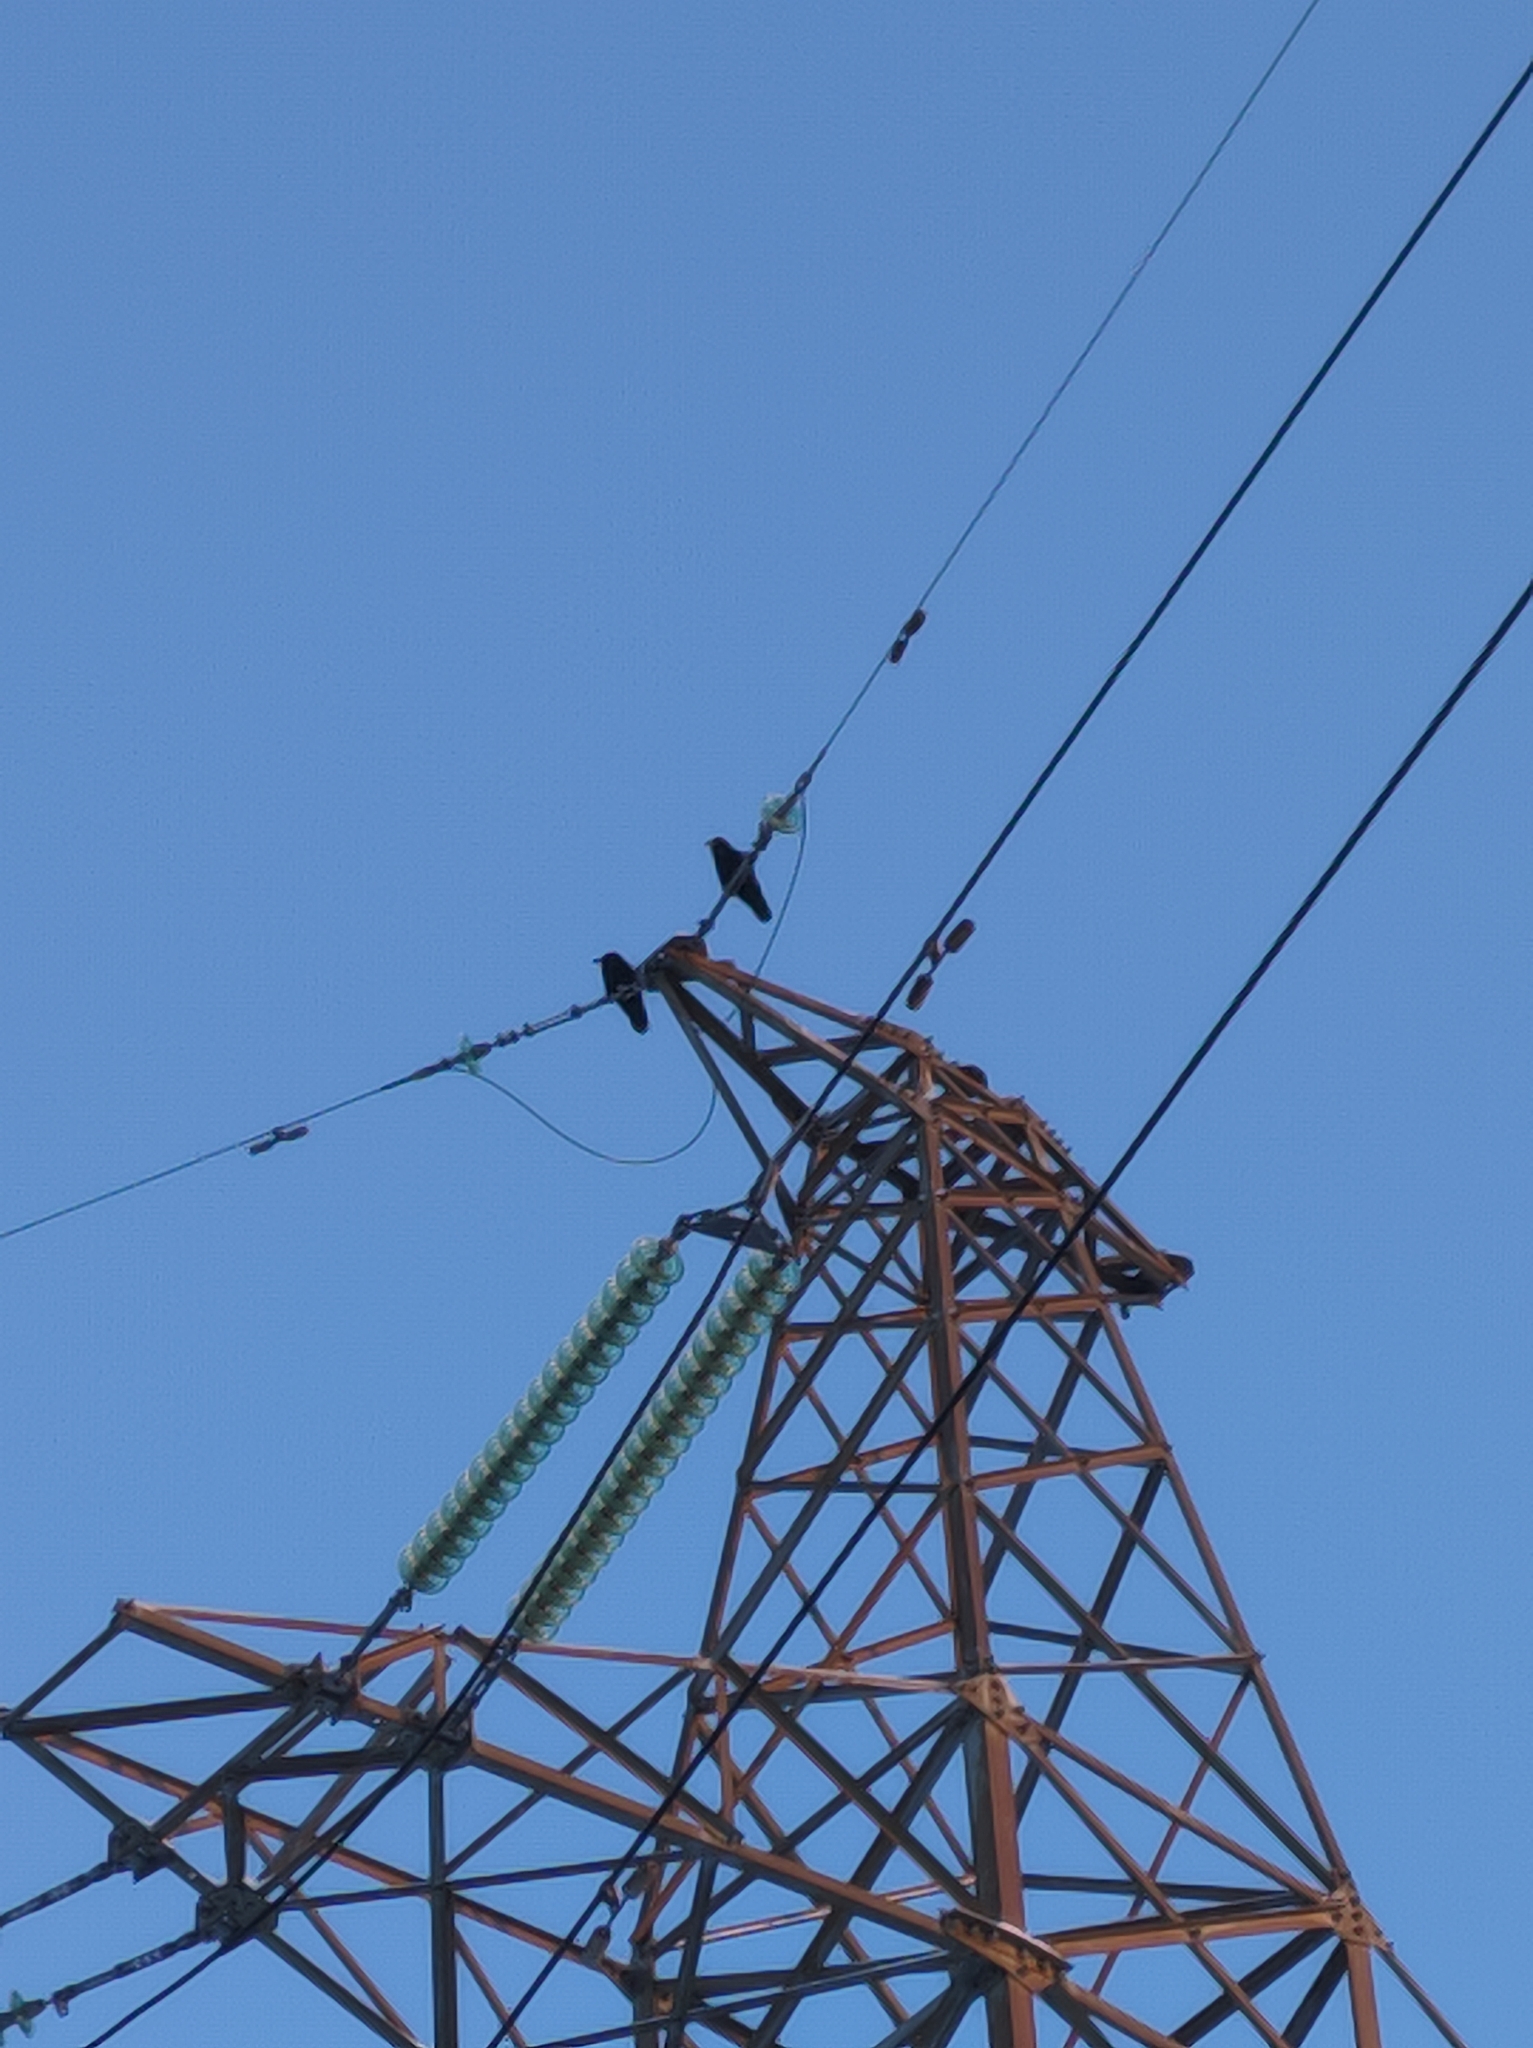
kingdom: Animalia
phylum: Chordata
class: Aves
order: Passeriformes
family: Corvidae
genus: Corvus
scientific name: Corvus corax
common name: Common raven
